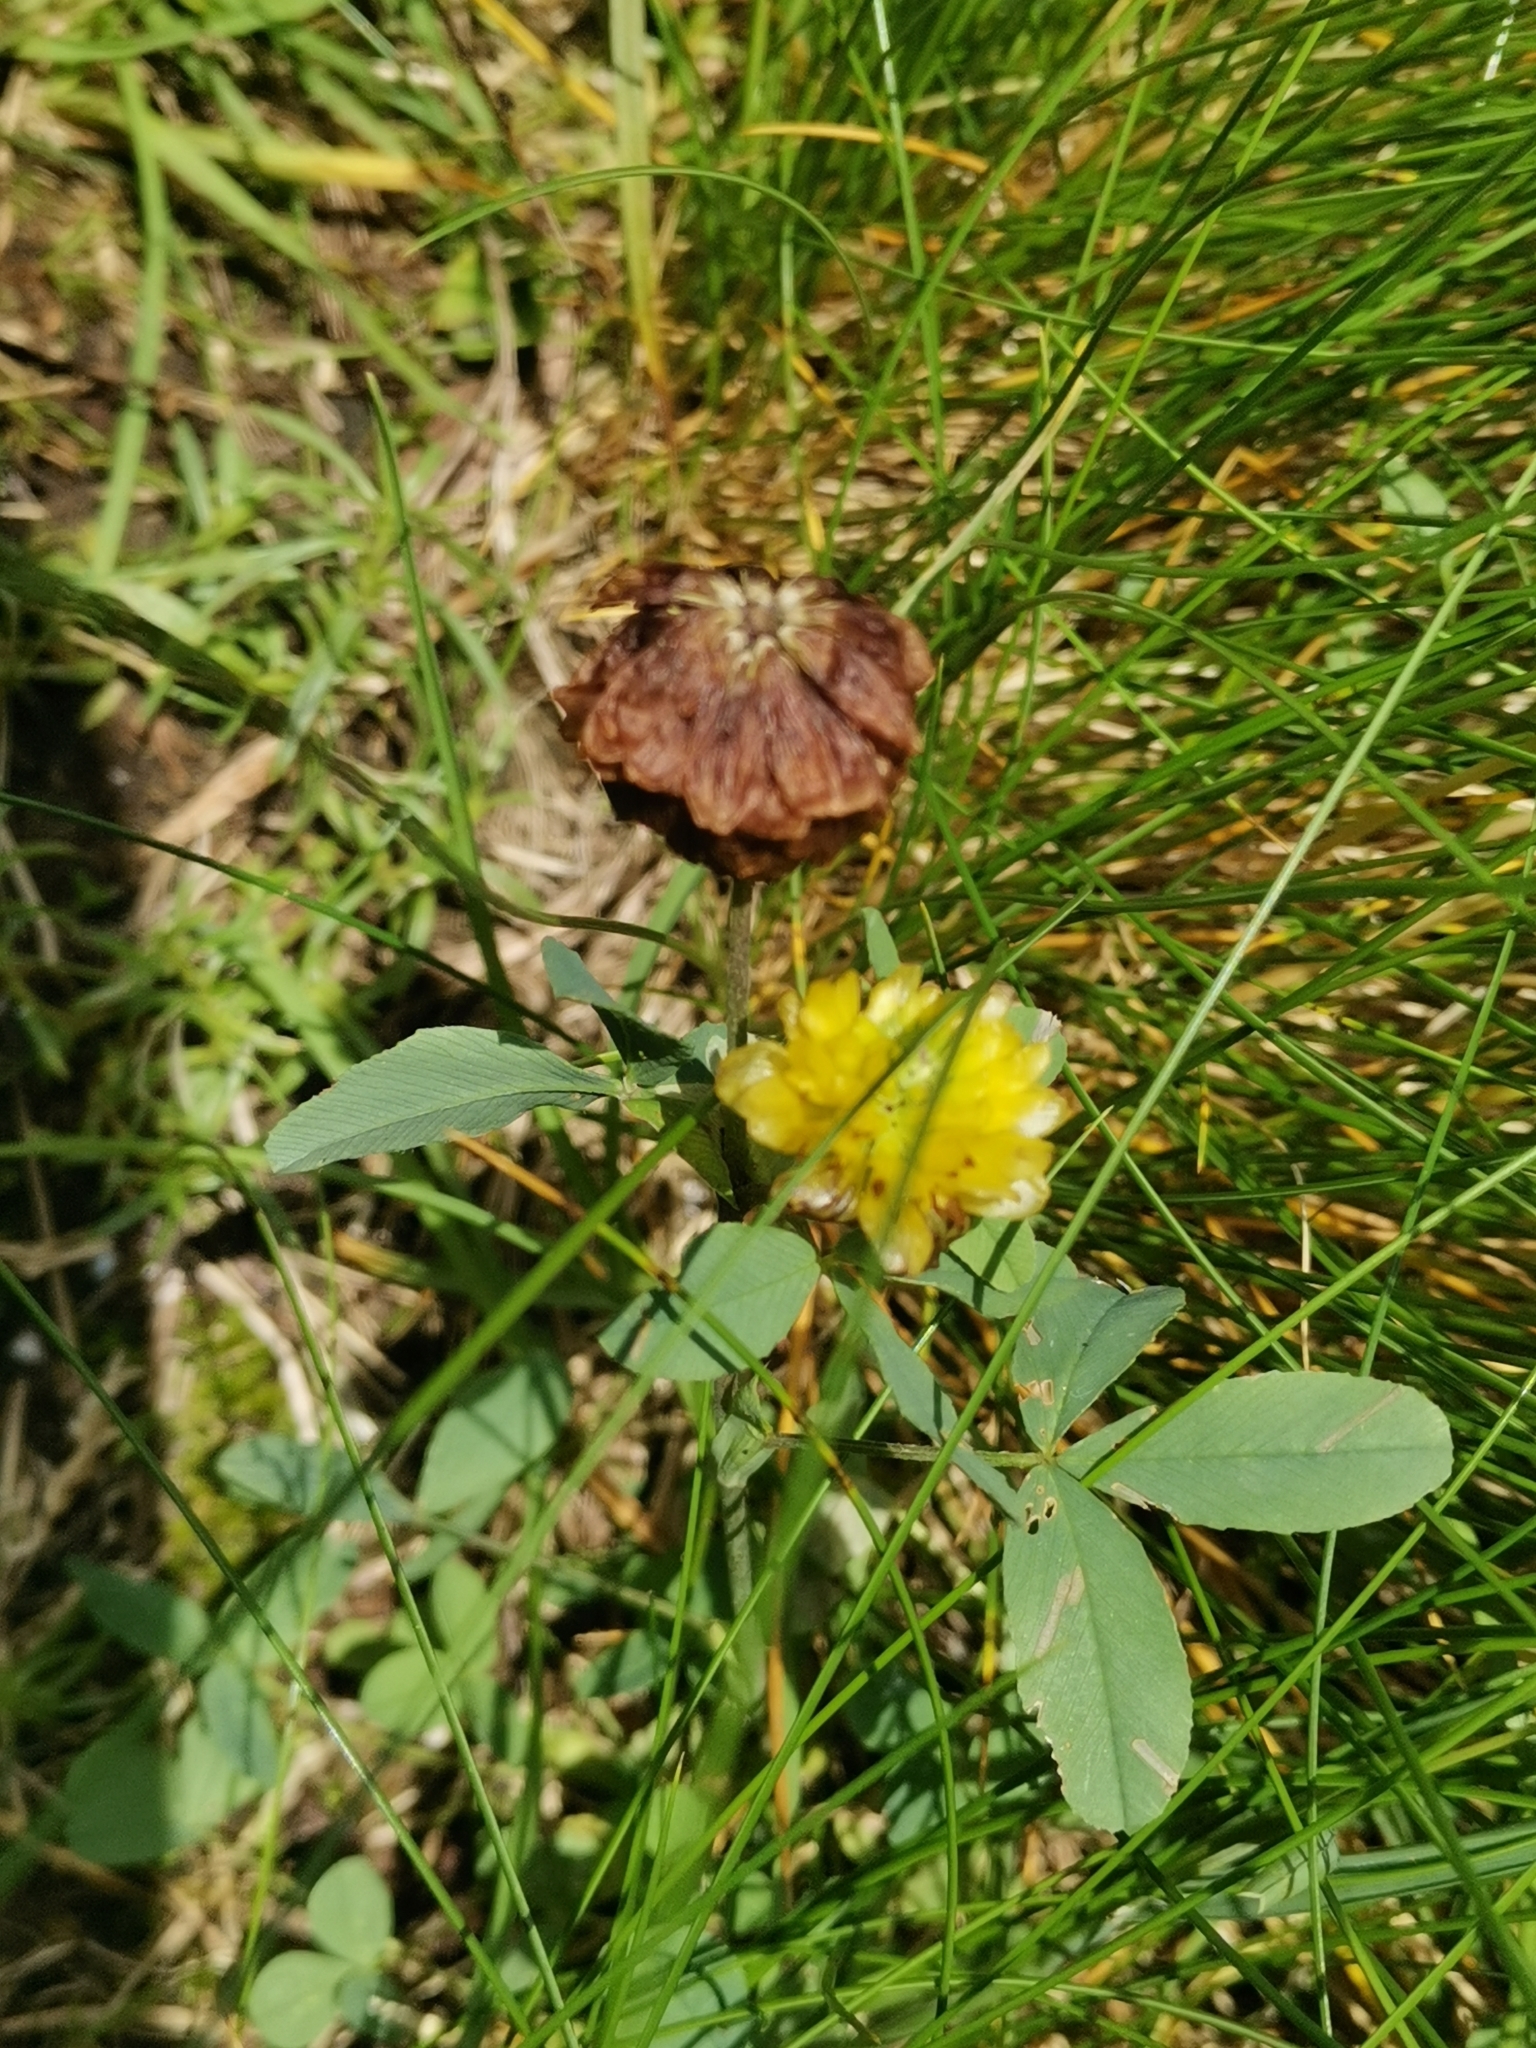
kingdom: Plantae
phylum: Tracheophyta
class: Magnoliopsida
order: Fabales
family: Fabaceae
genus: Trifolium
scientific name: Trifolium badium
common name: Brown clover
